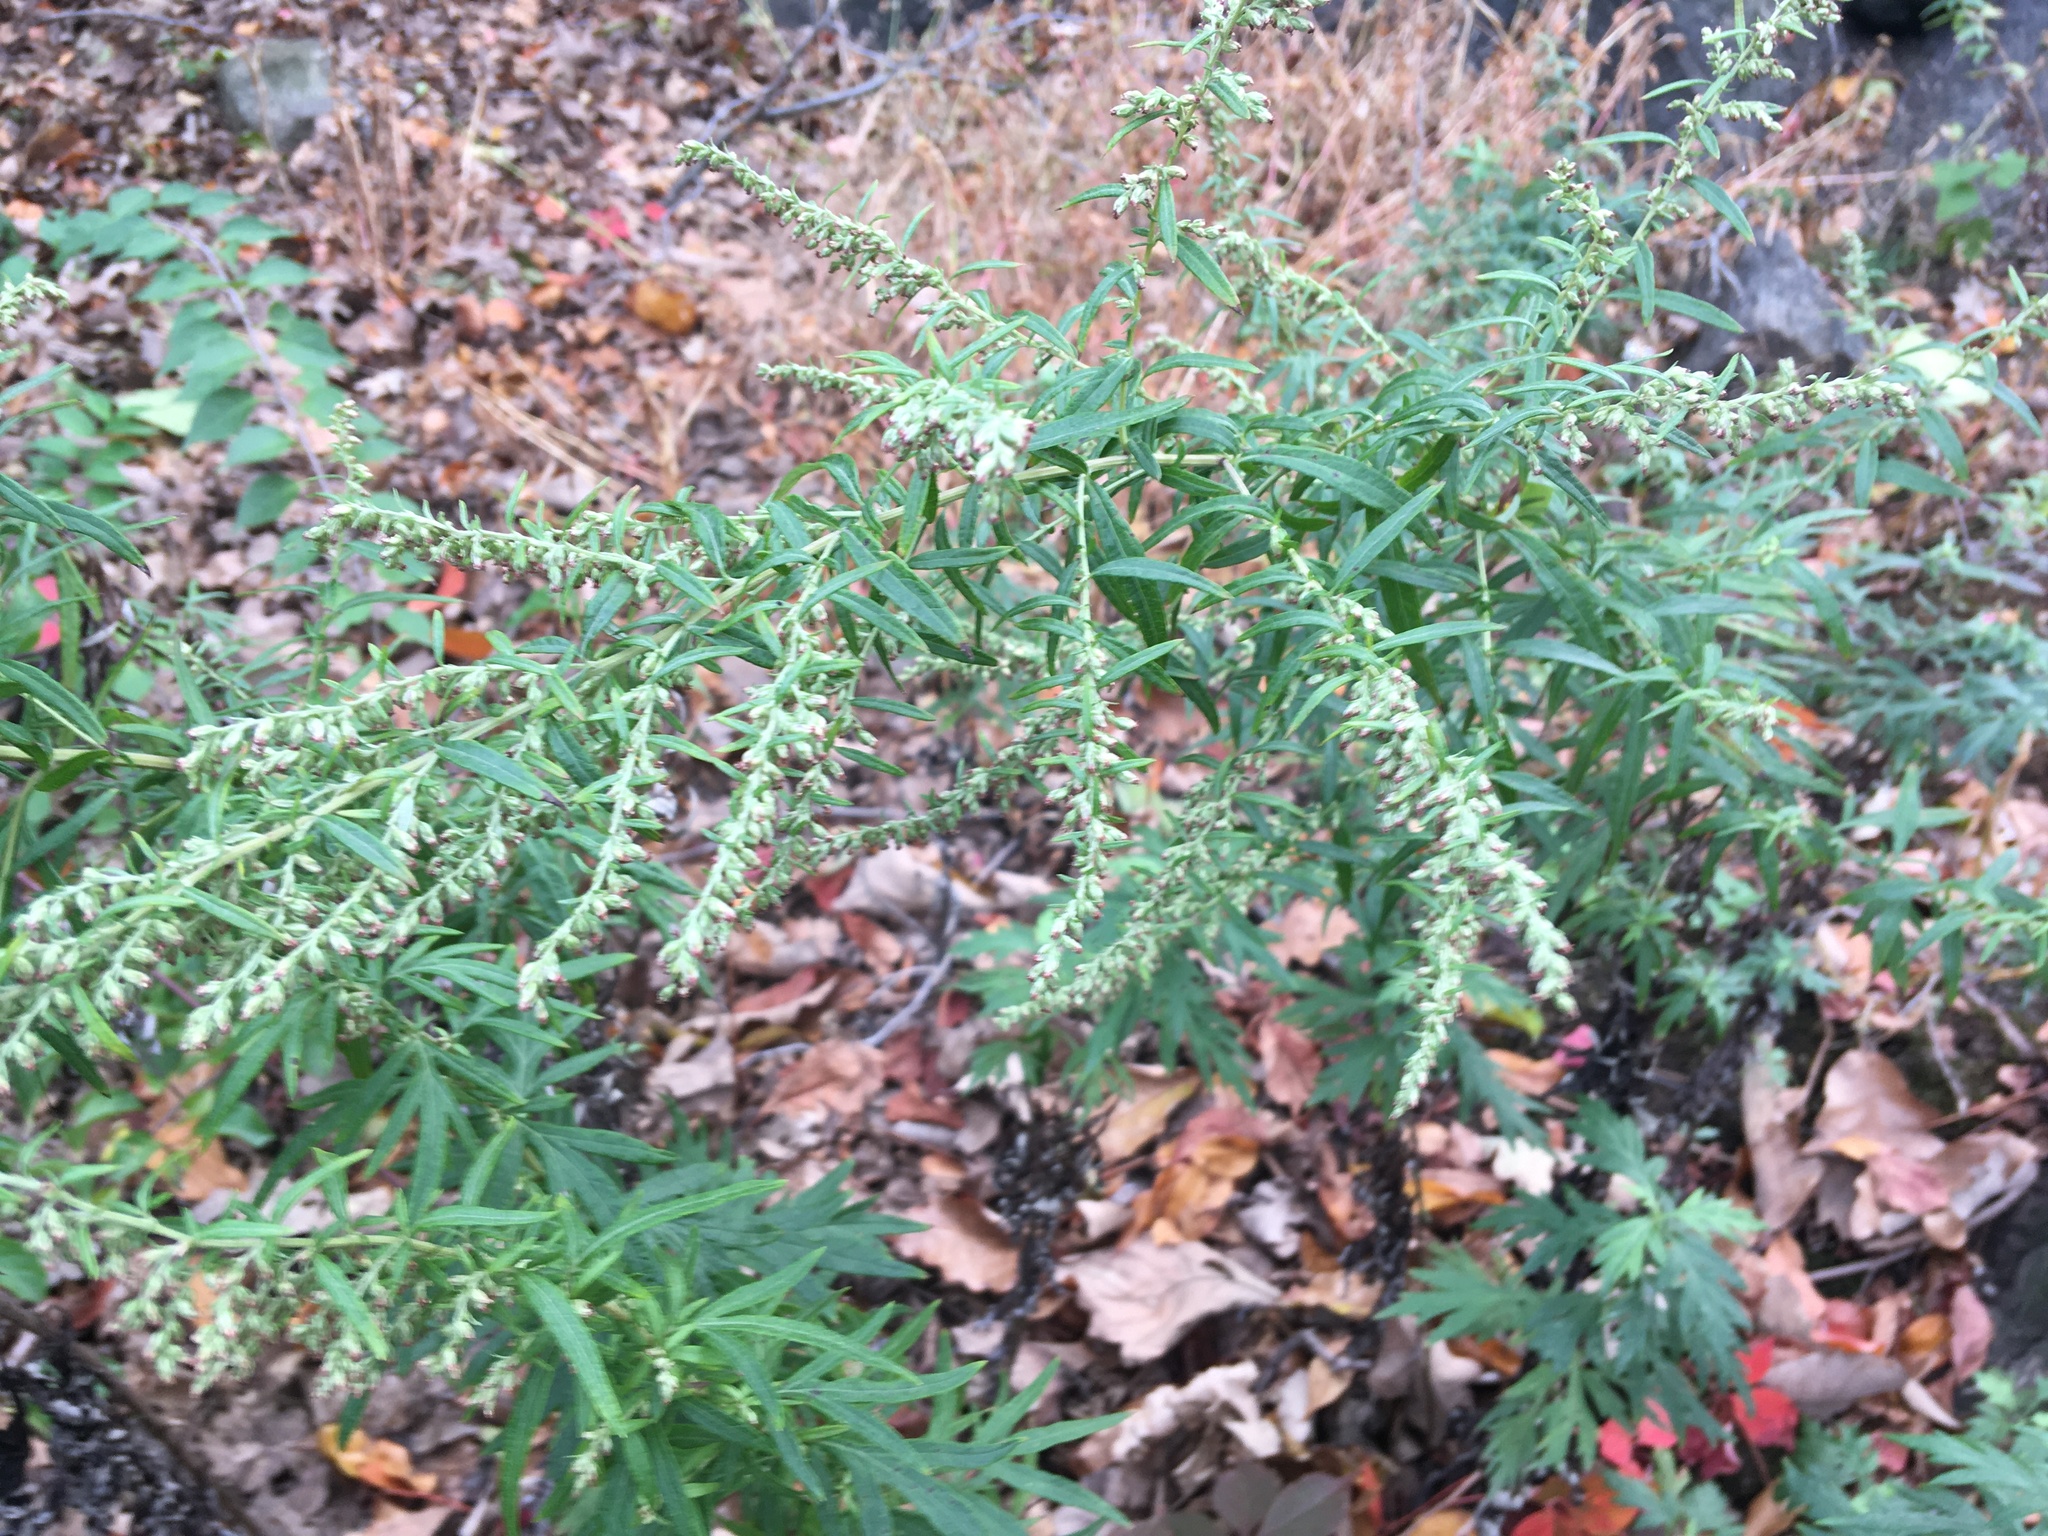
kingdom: Plantae
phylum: Tracheophyta
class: Magnoliopsida
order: Asterales
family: Asteraceae
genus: Artemisia
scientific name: Artemisia vulgaris
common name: Mugwort
